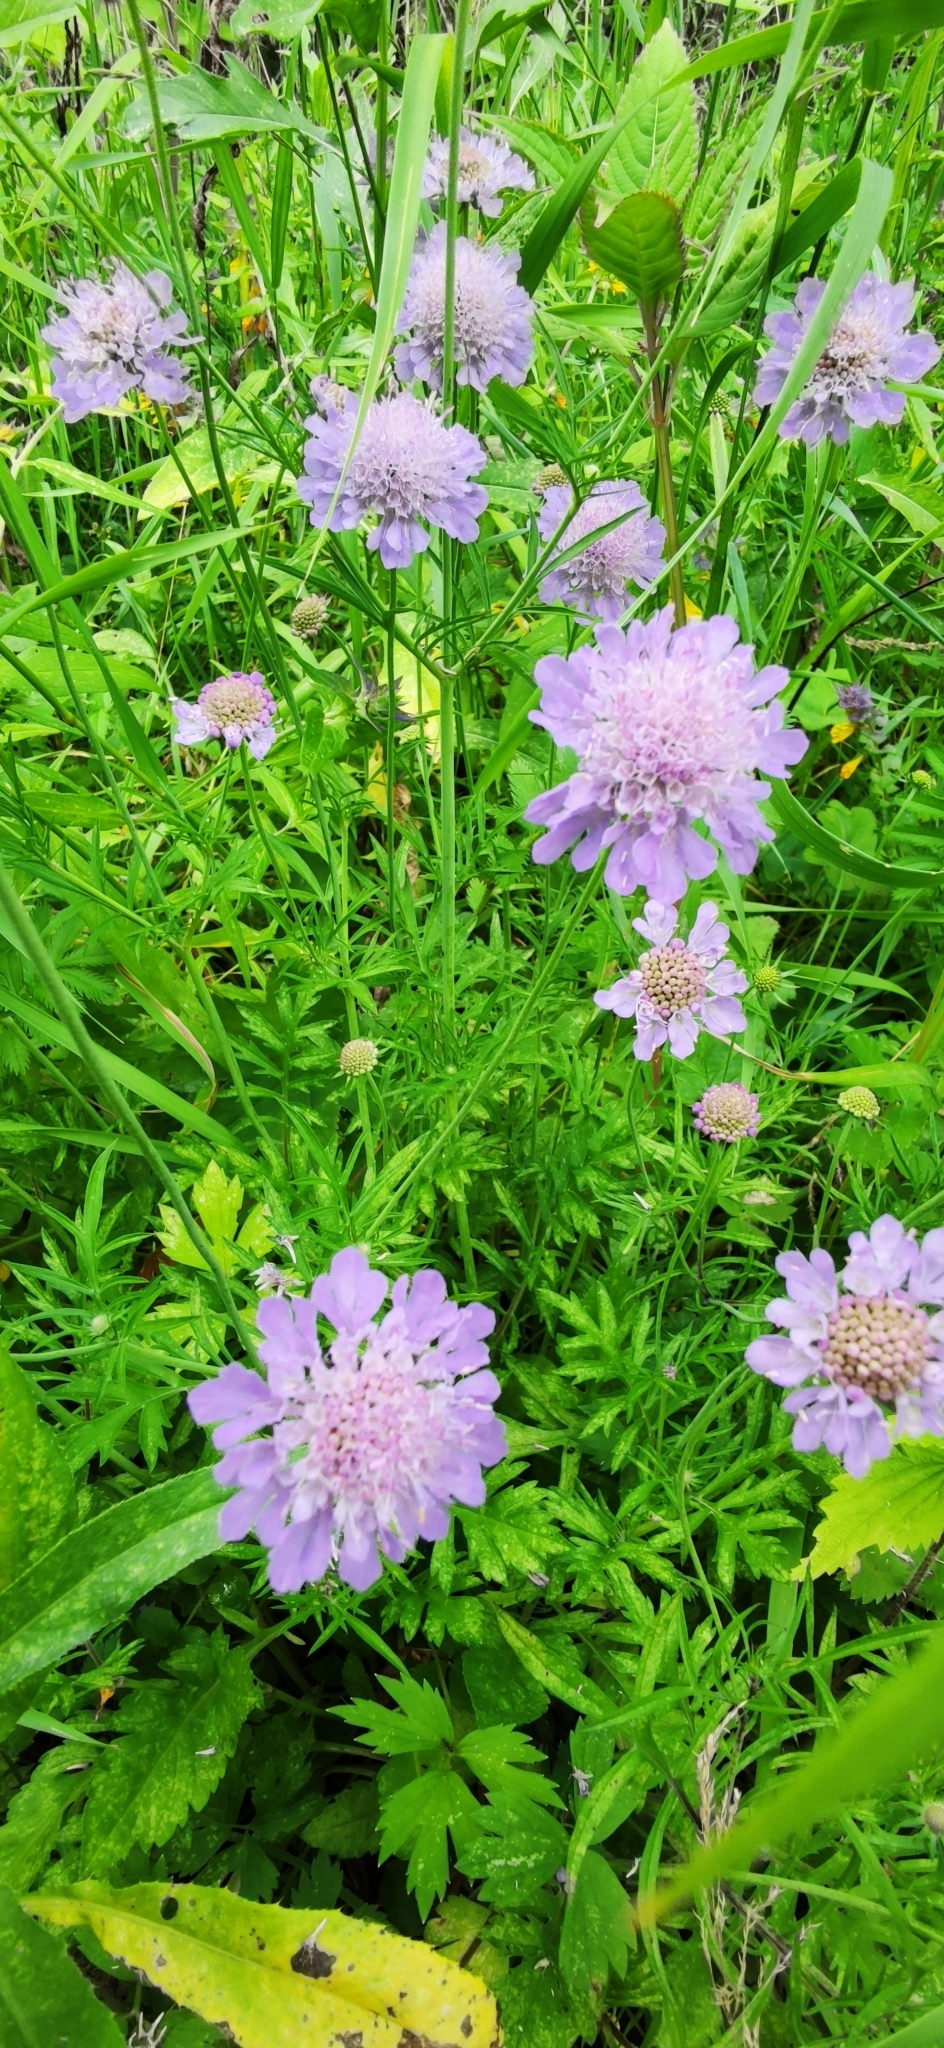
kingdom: Plantae
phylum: Tracheophyta
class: Magnoliopsida
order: Dipsacales
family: Caprifoliaceae
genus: Knautia
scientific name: Knautia arvensis
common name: Field scabiosa
